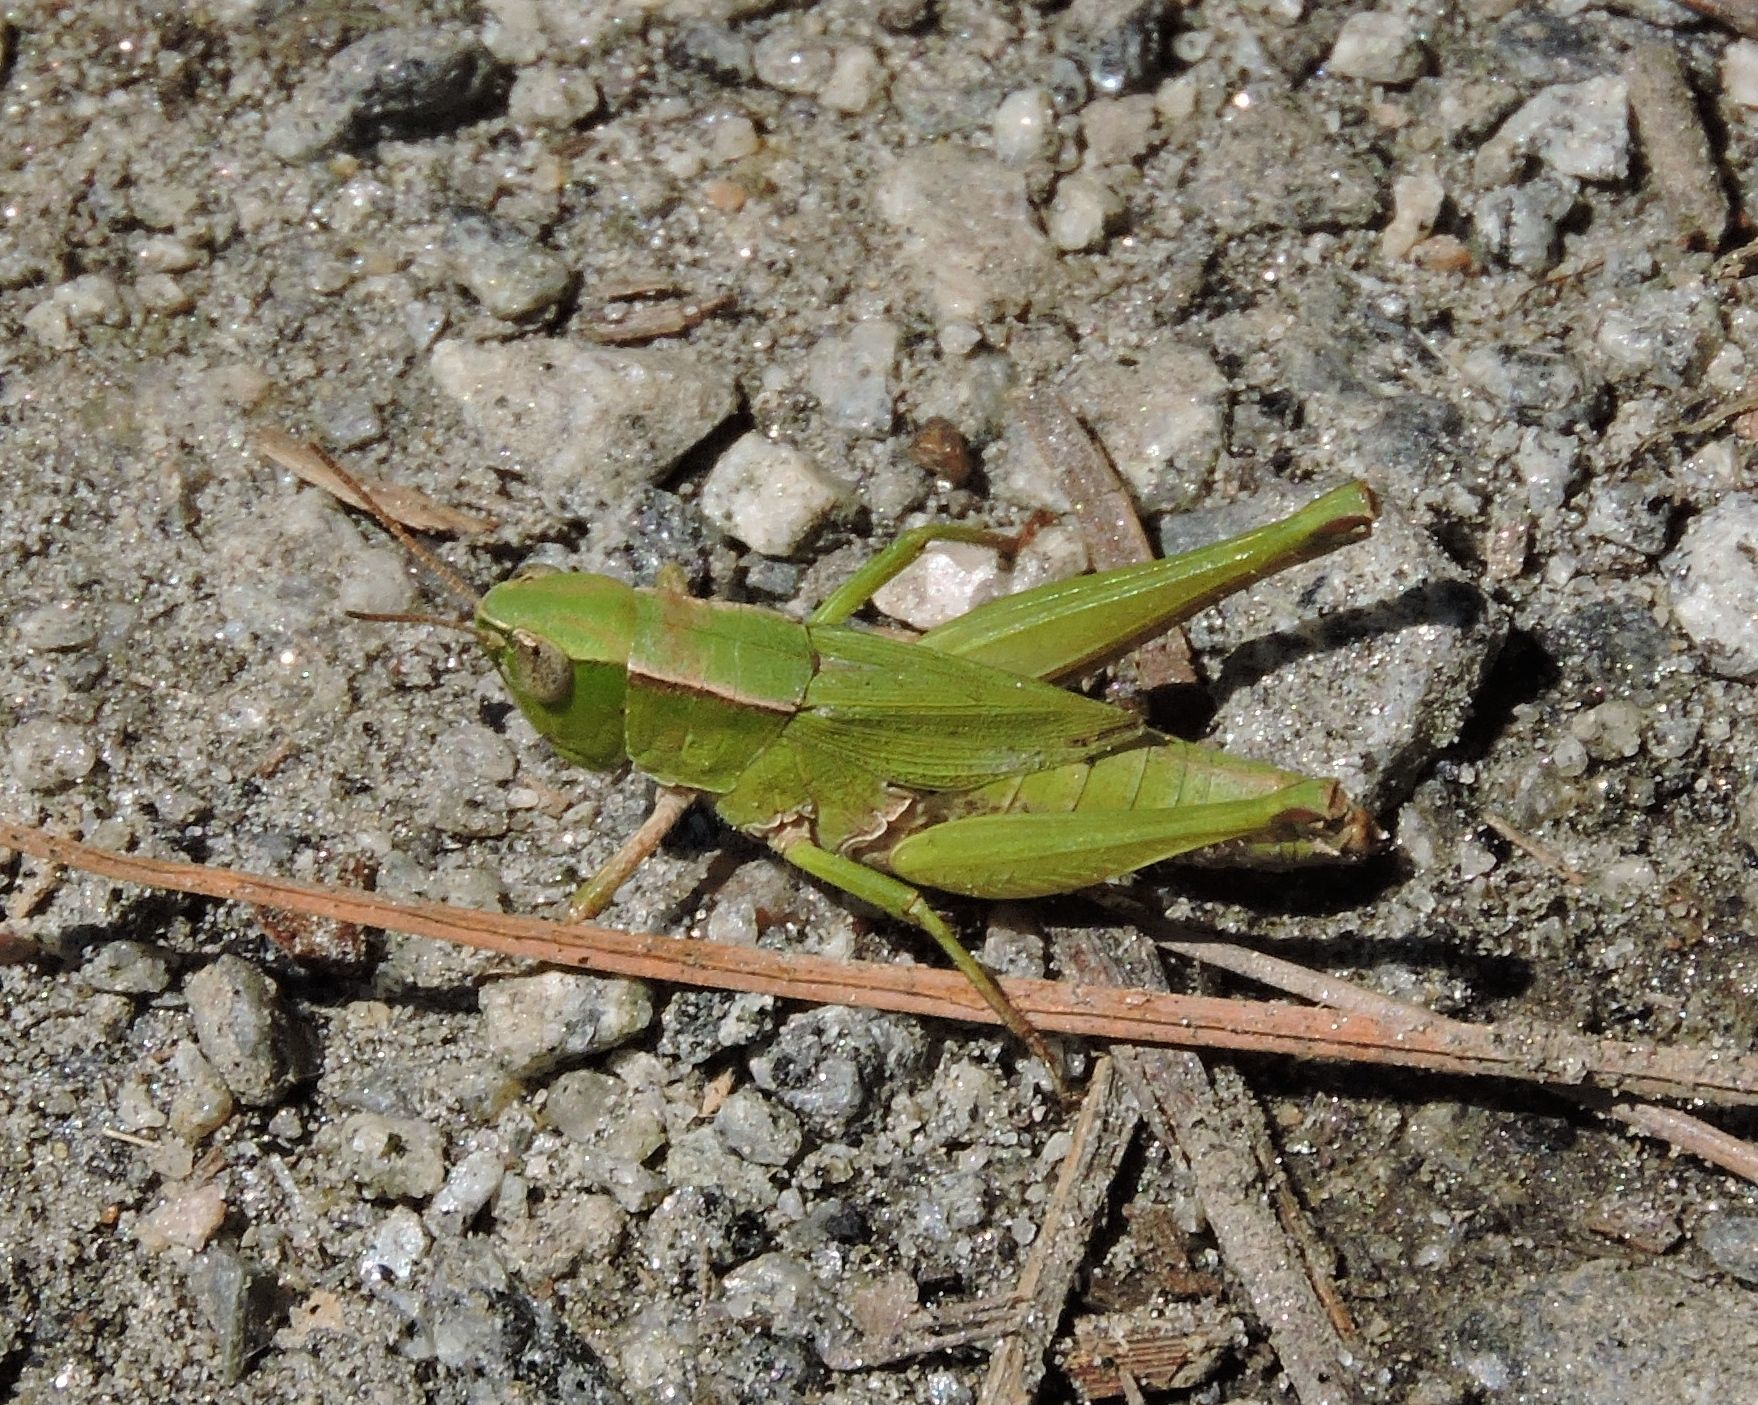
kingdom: Animalia
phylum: Arthropoda
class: Insecta
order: Orthoptera
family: Acrididae
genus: Dichromorpha
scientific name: Dichromorpha viridis
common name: Short-winged green grasshopper
